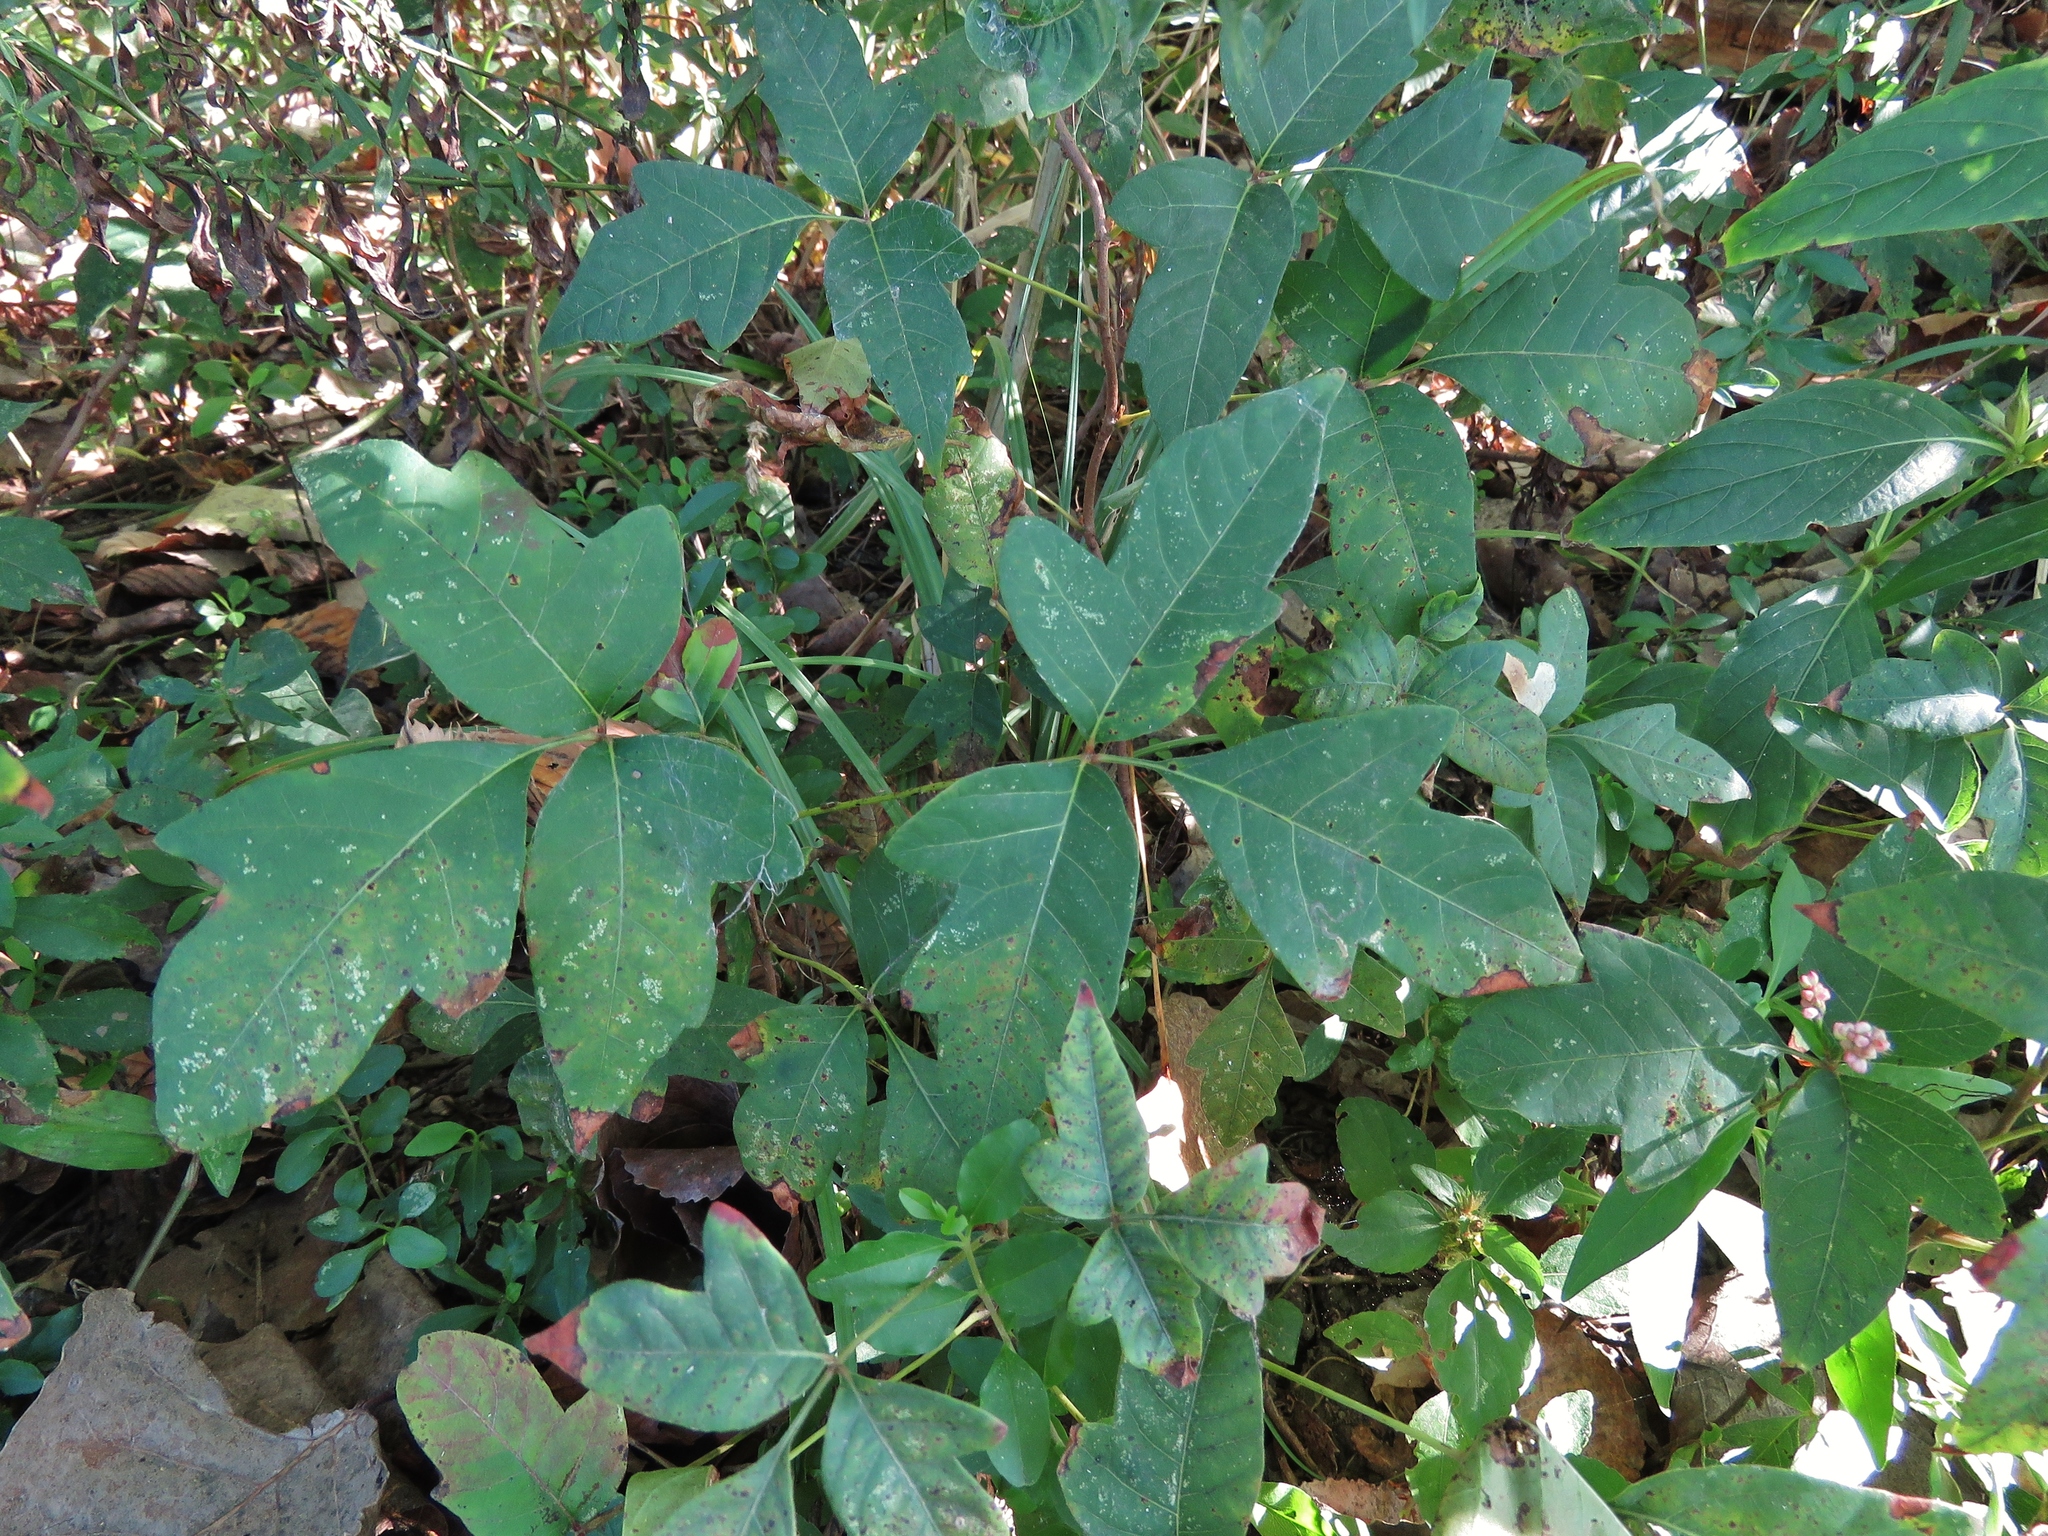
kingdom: Plantae
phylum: Tracheophyta
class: Magnoliopsida
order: Sapindales
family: Anacardiaceae
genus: Toxicodendron
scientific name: Toxicodendron radicans
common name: Poison ivy
